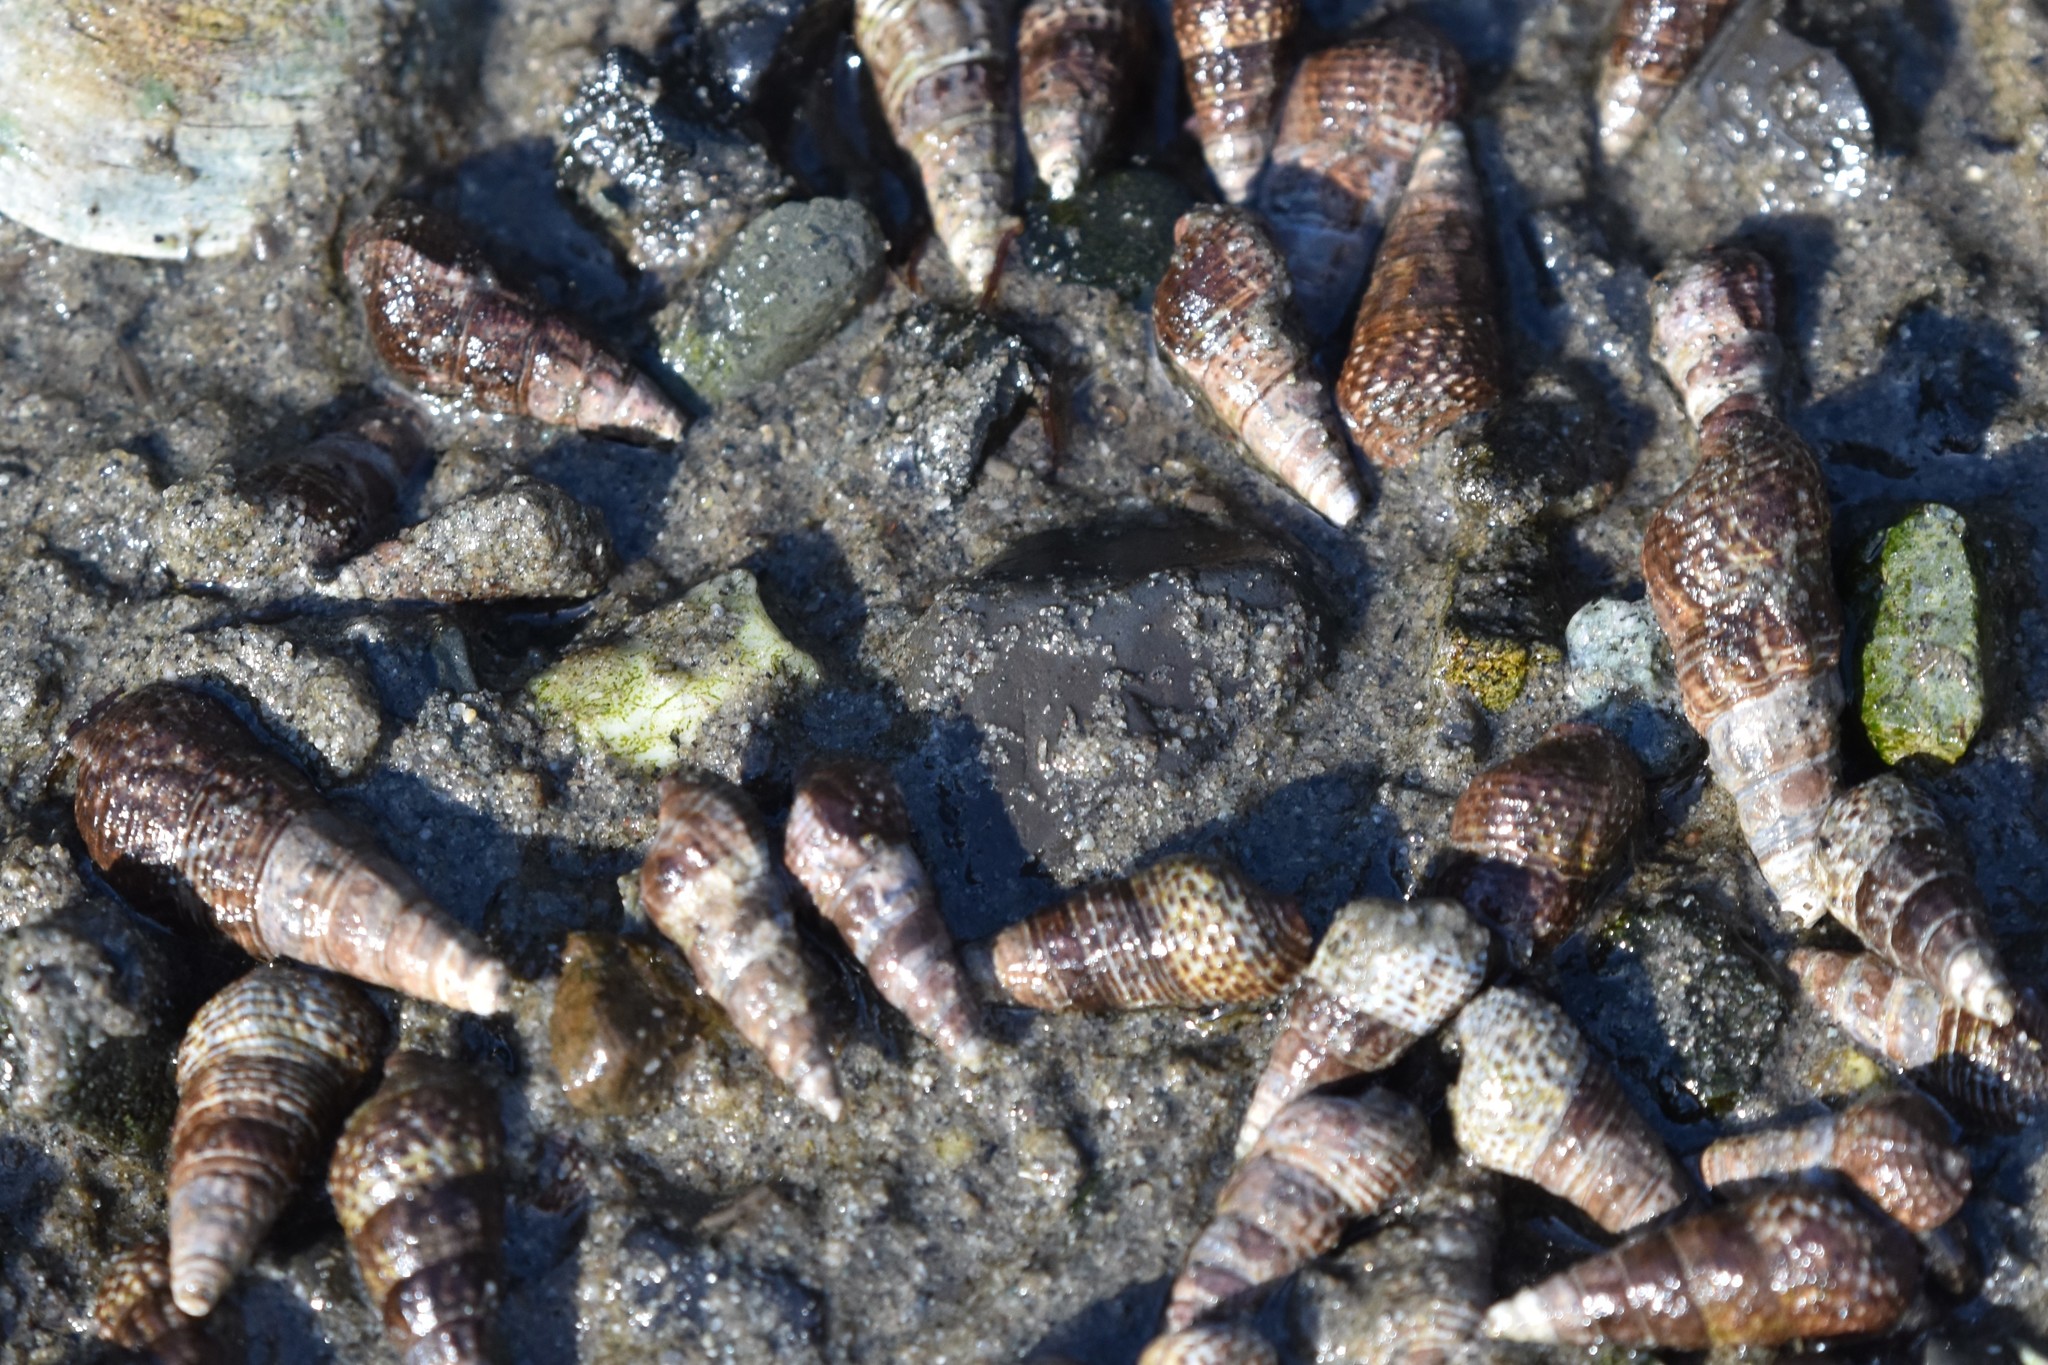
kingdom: Animalia
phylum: Mollusca
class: Gastropoda
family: Batillariidae
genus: Batillaria
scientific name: Batillaria attramentaria
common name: Japanese false cerith
